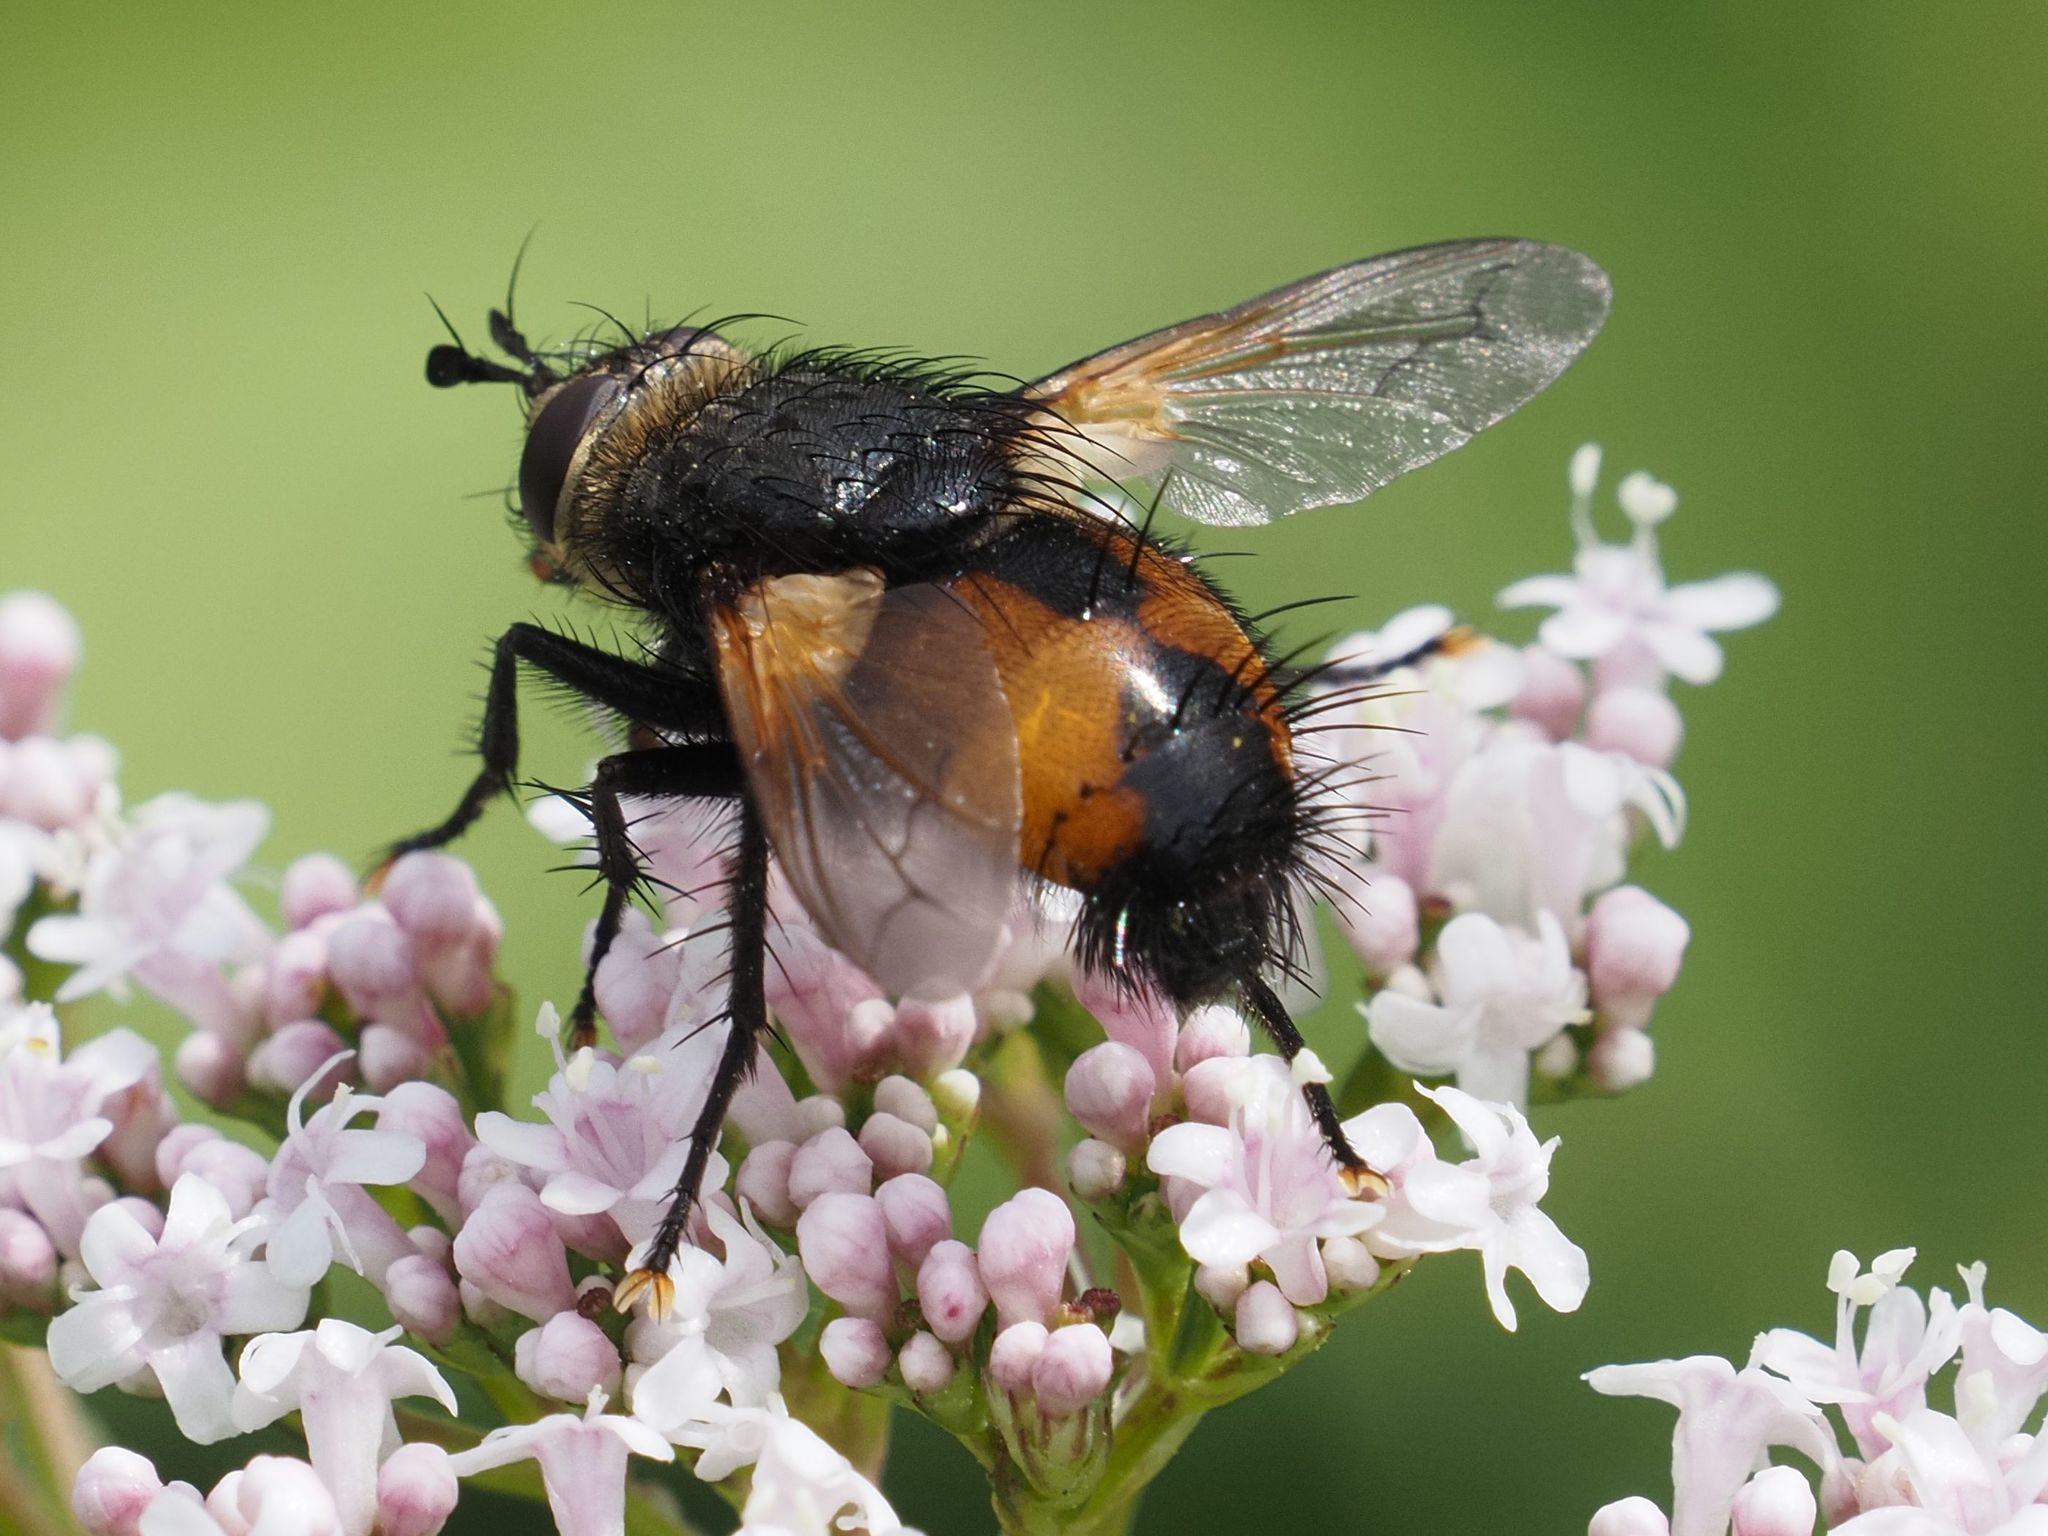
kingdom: Animalia
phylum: Arthropoda
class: Insecta
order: Diptera
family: Tachinidae
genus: Nowickia
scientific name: Nowickia ferox
